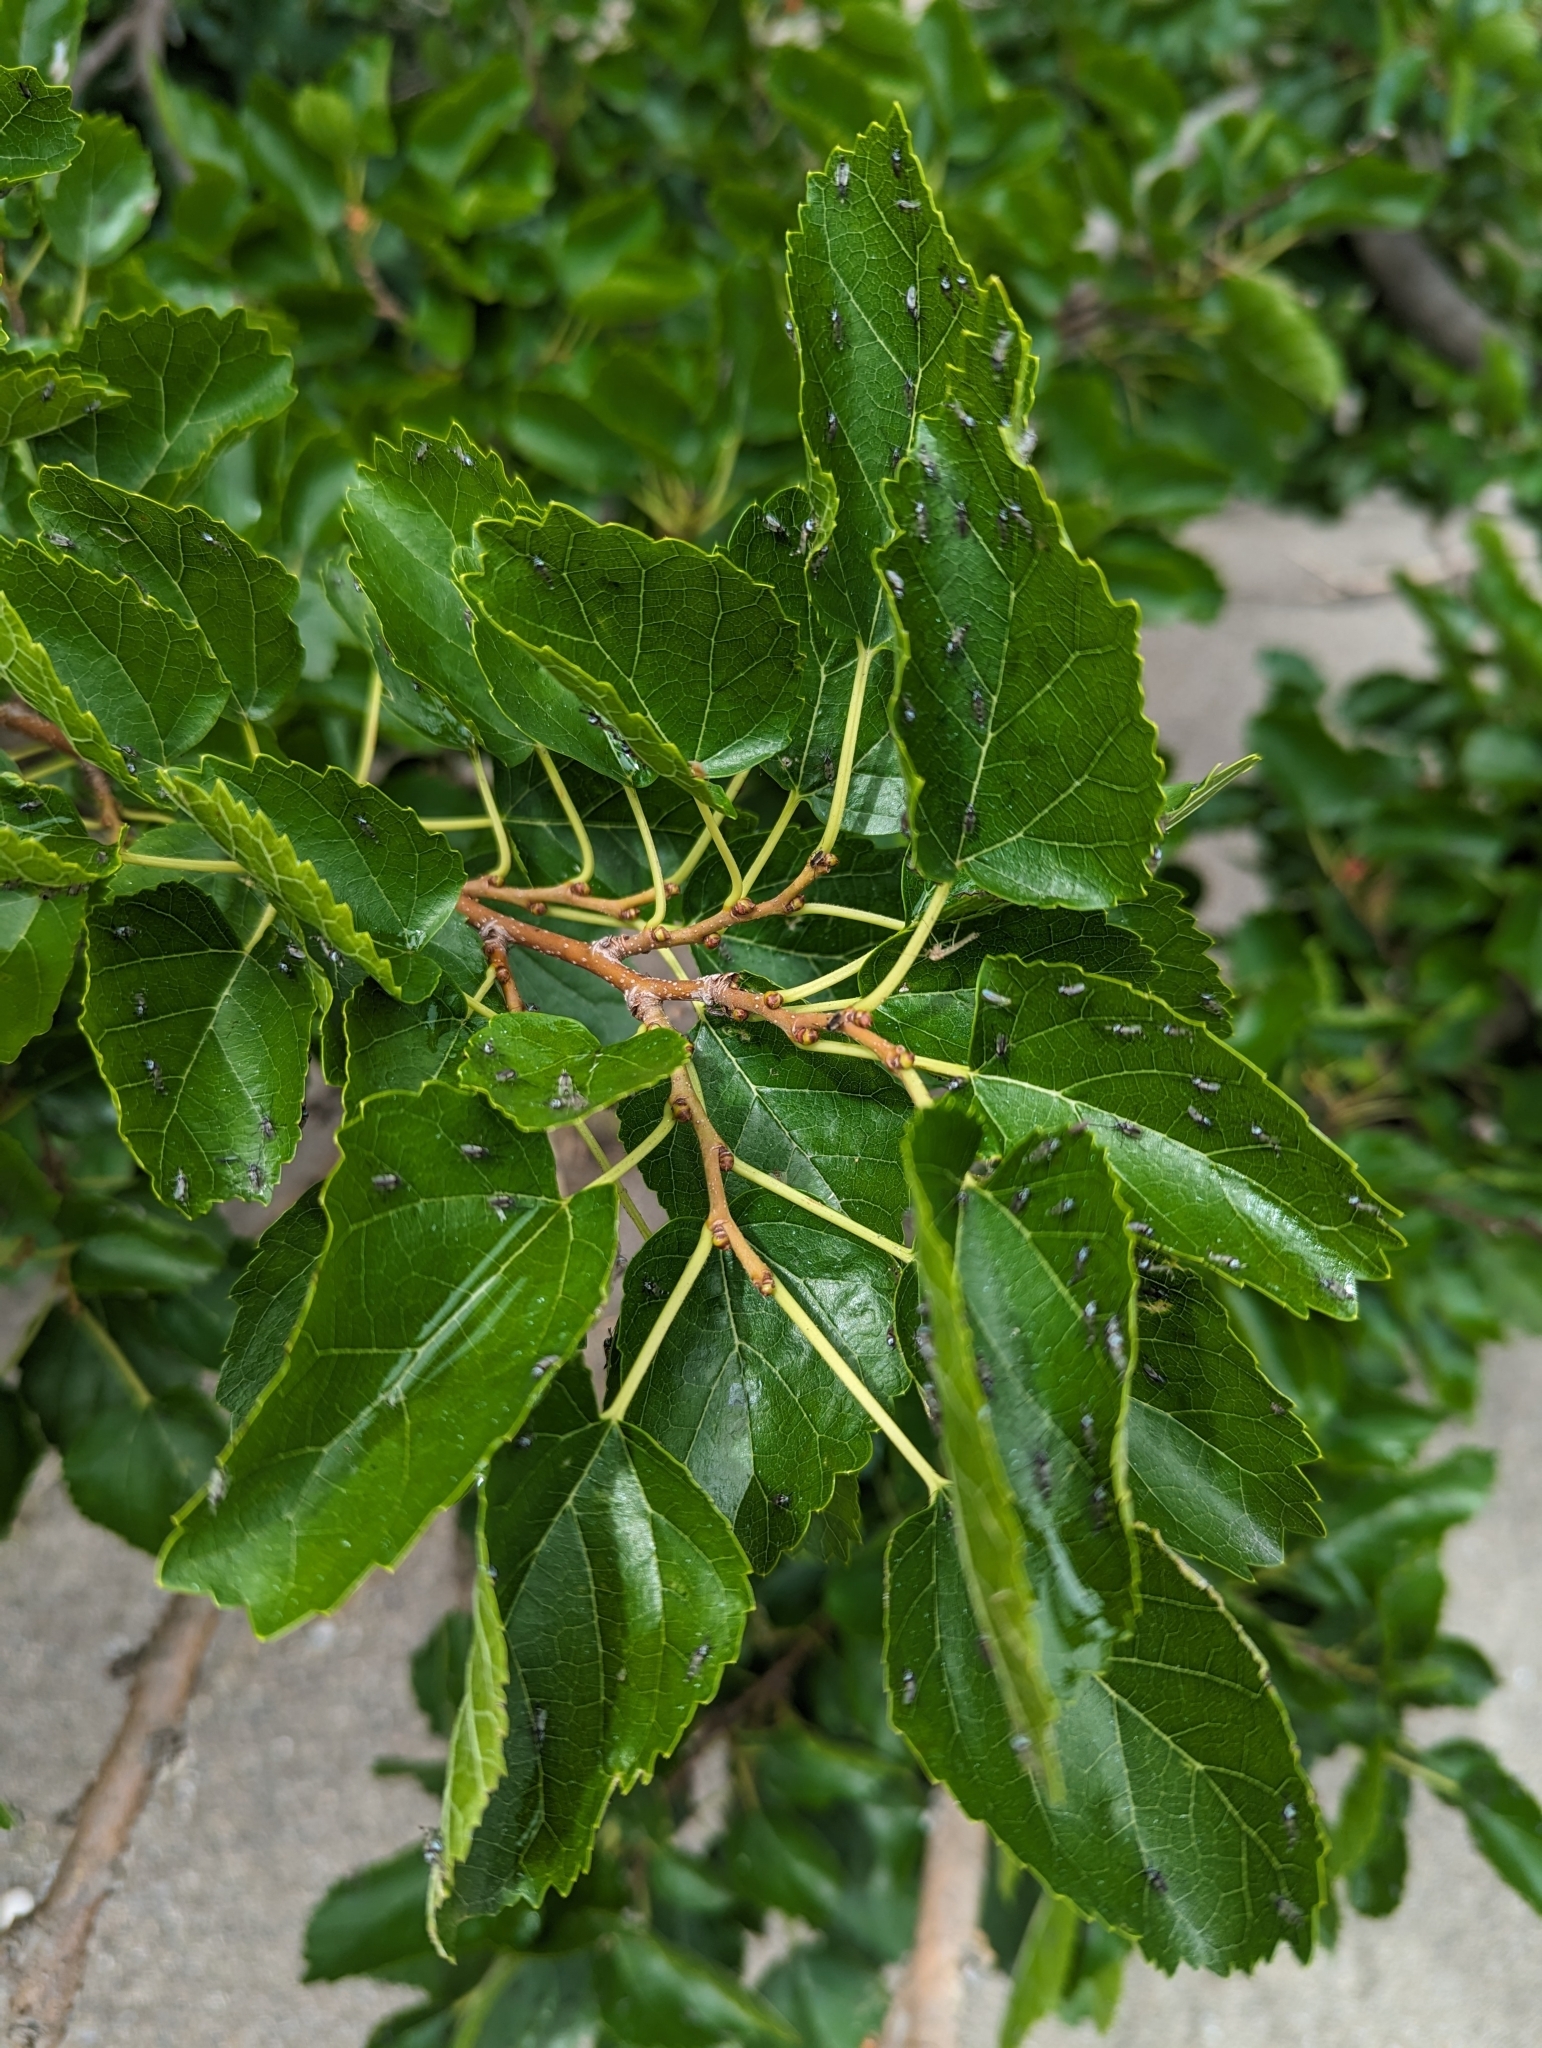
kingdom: Plantae
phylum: Tracheophyta
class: Magnoliopsida
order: Rosales
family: Moraceae
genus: Morus
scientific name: Morus alba
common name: White mulberry
